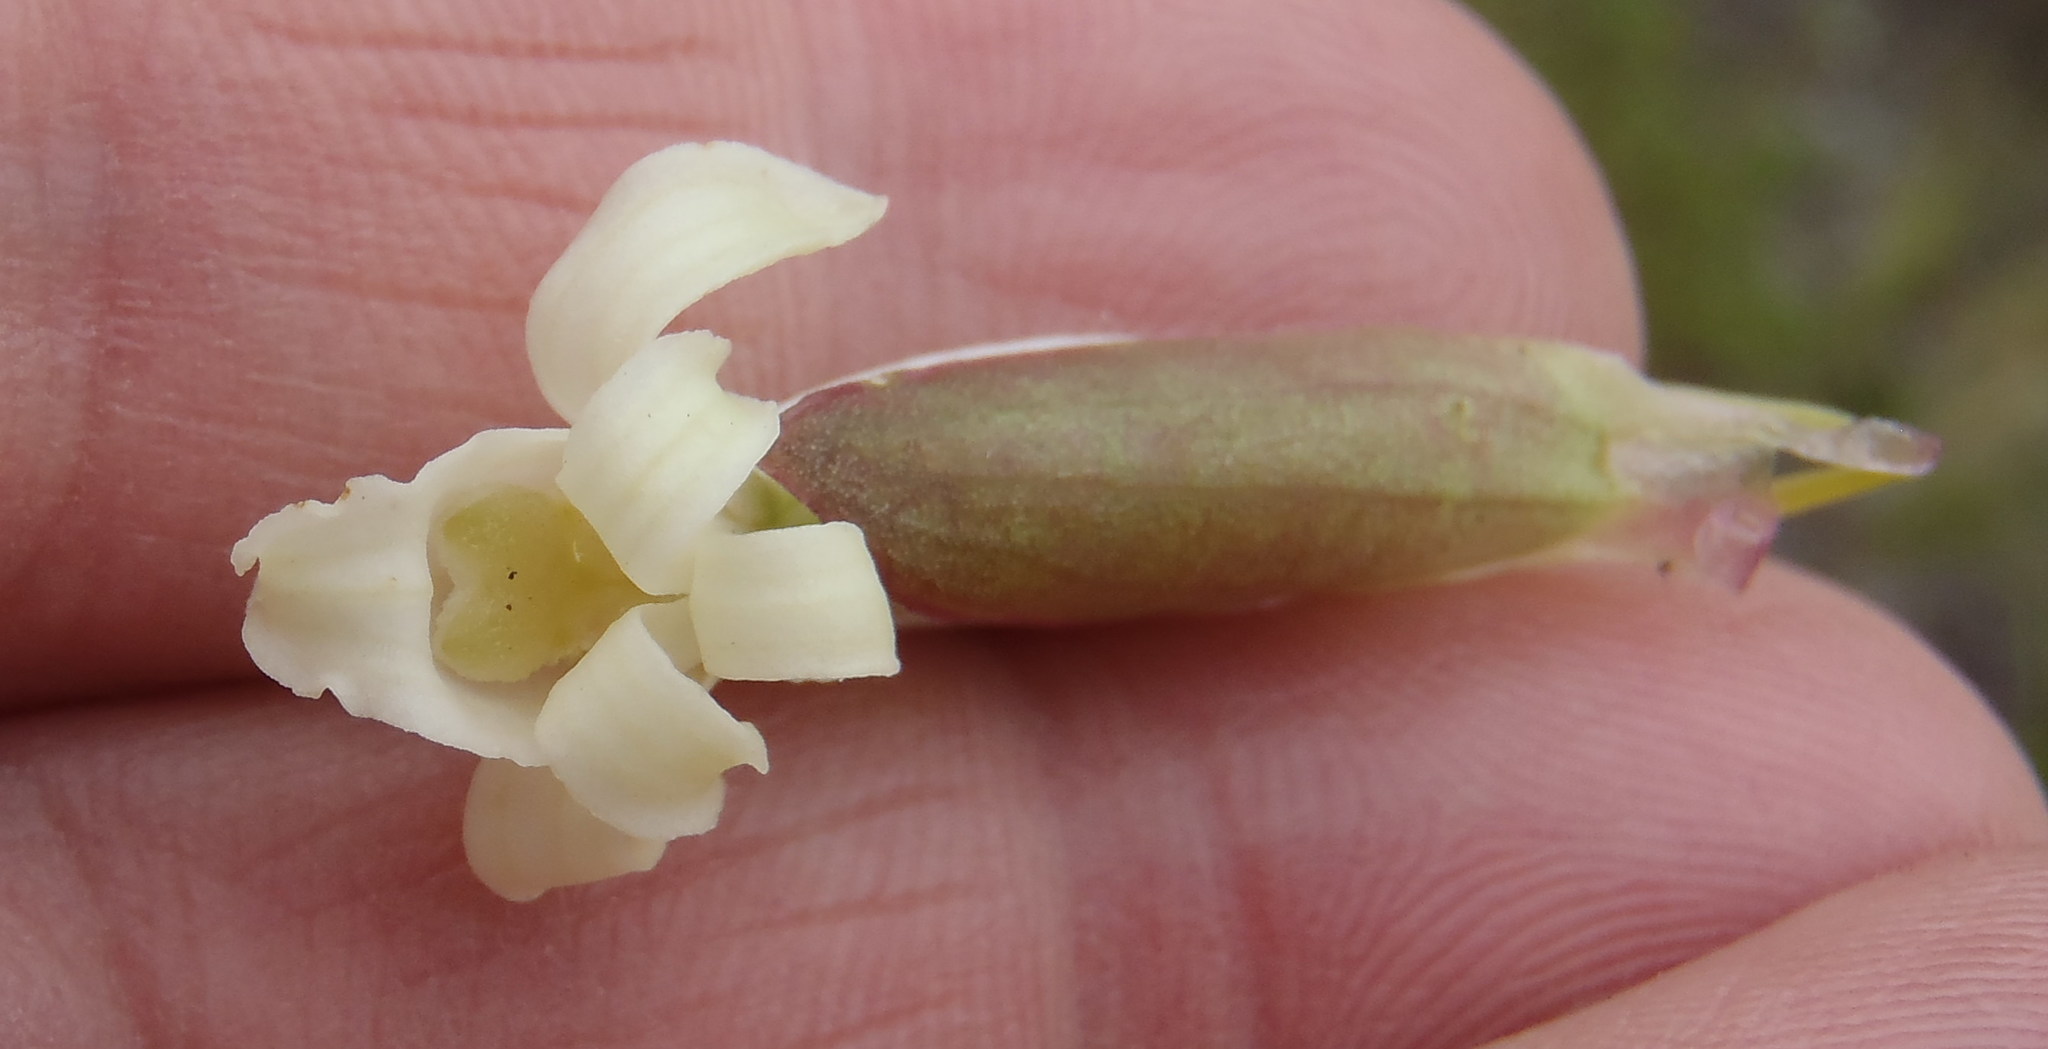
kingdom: Plantae
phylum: Tracheophyta
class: Liliopsida
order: Asparagales
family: Orchidaceae
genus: Satyrium
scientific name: Satyrium stenopetalum
